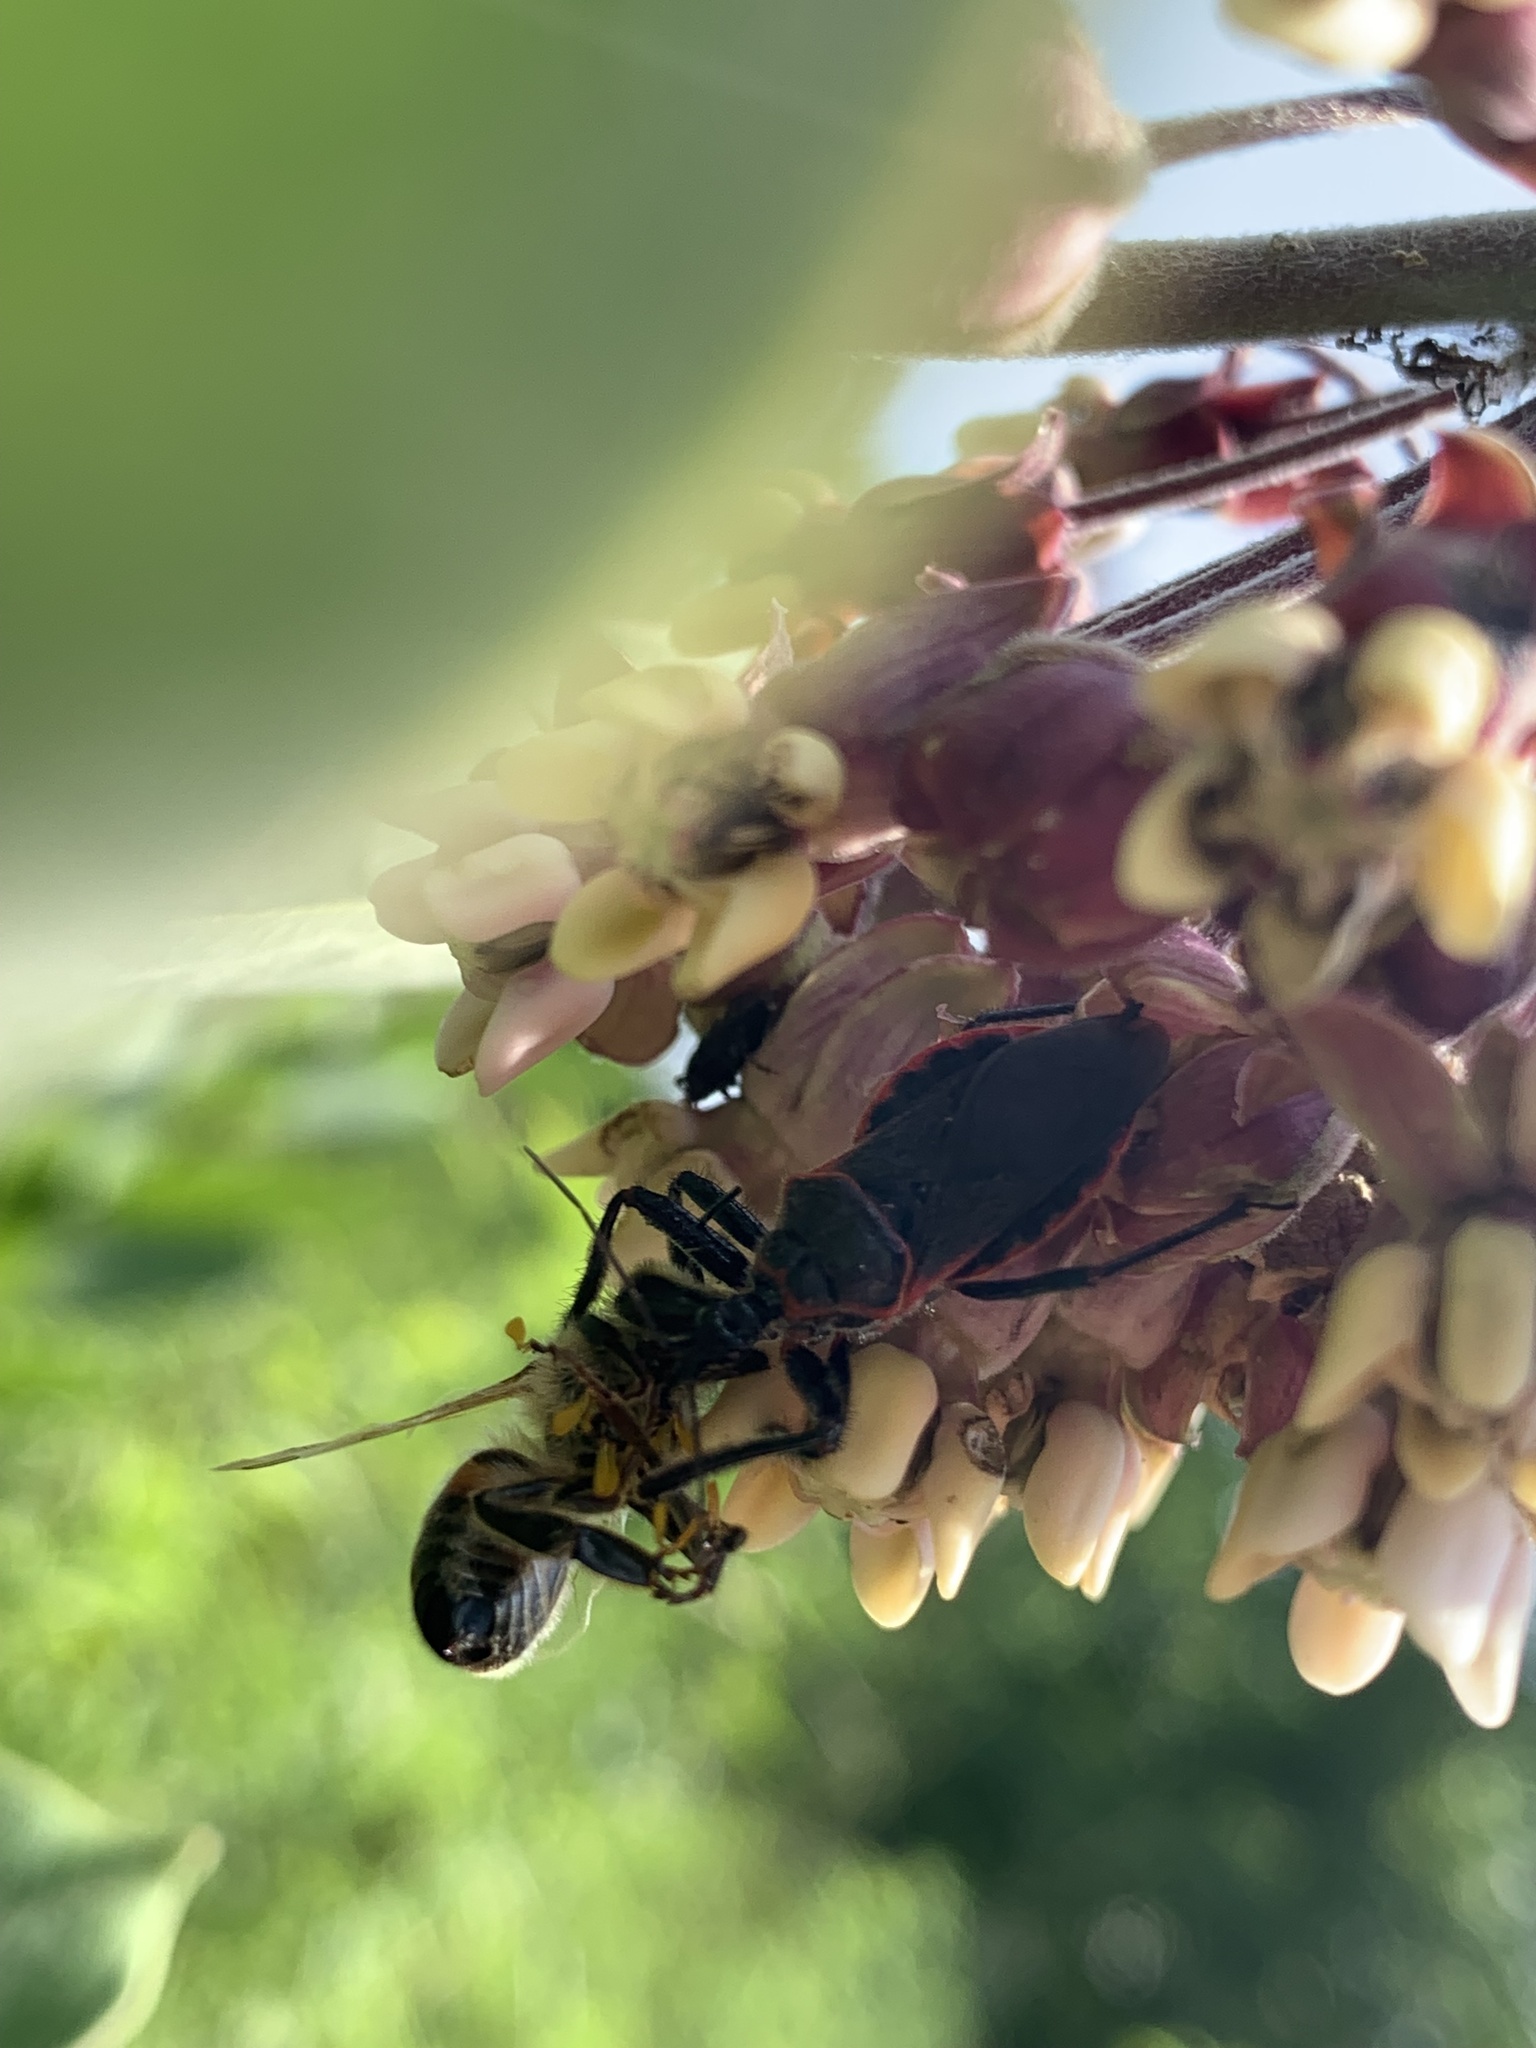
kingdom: Animalia
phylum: Arthropoda
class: Insecta
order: Hemiptera
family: Reduviidae
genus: Apiomerus
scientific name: Apiomerus crassipes
